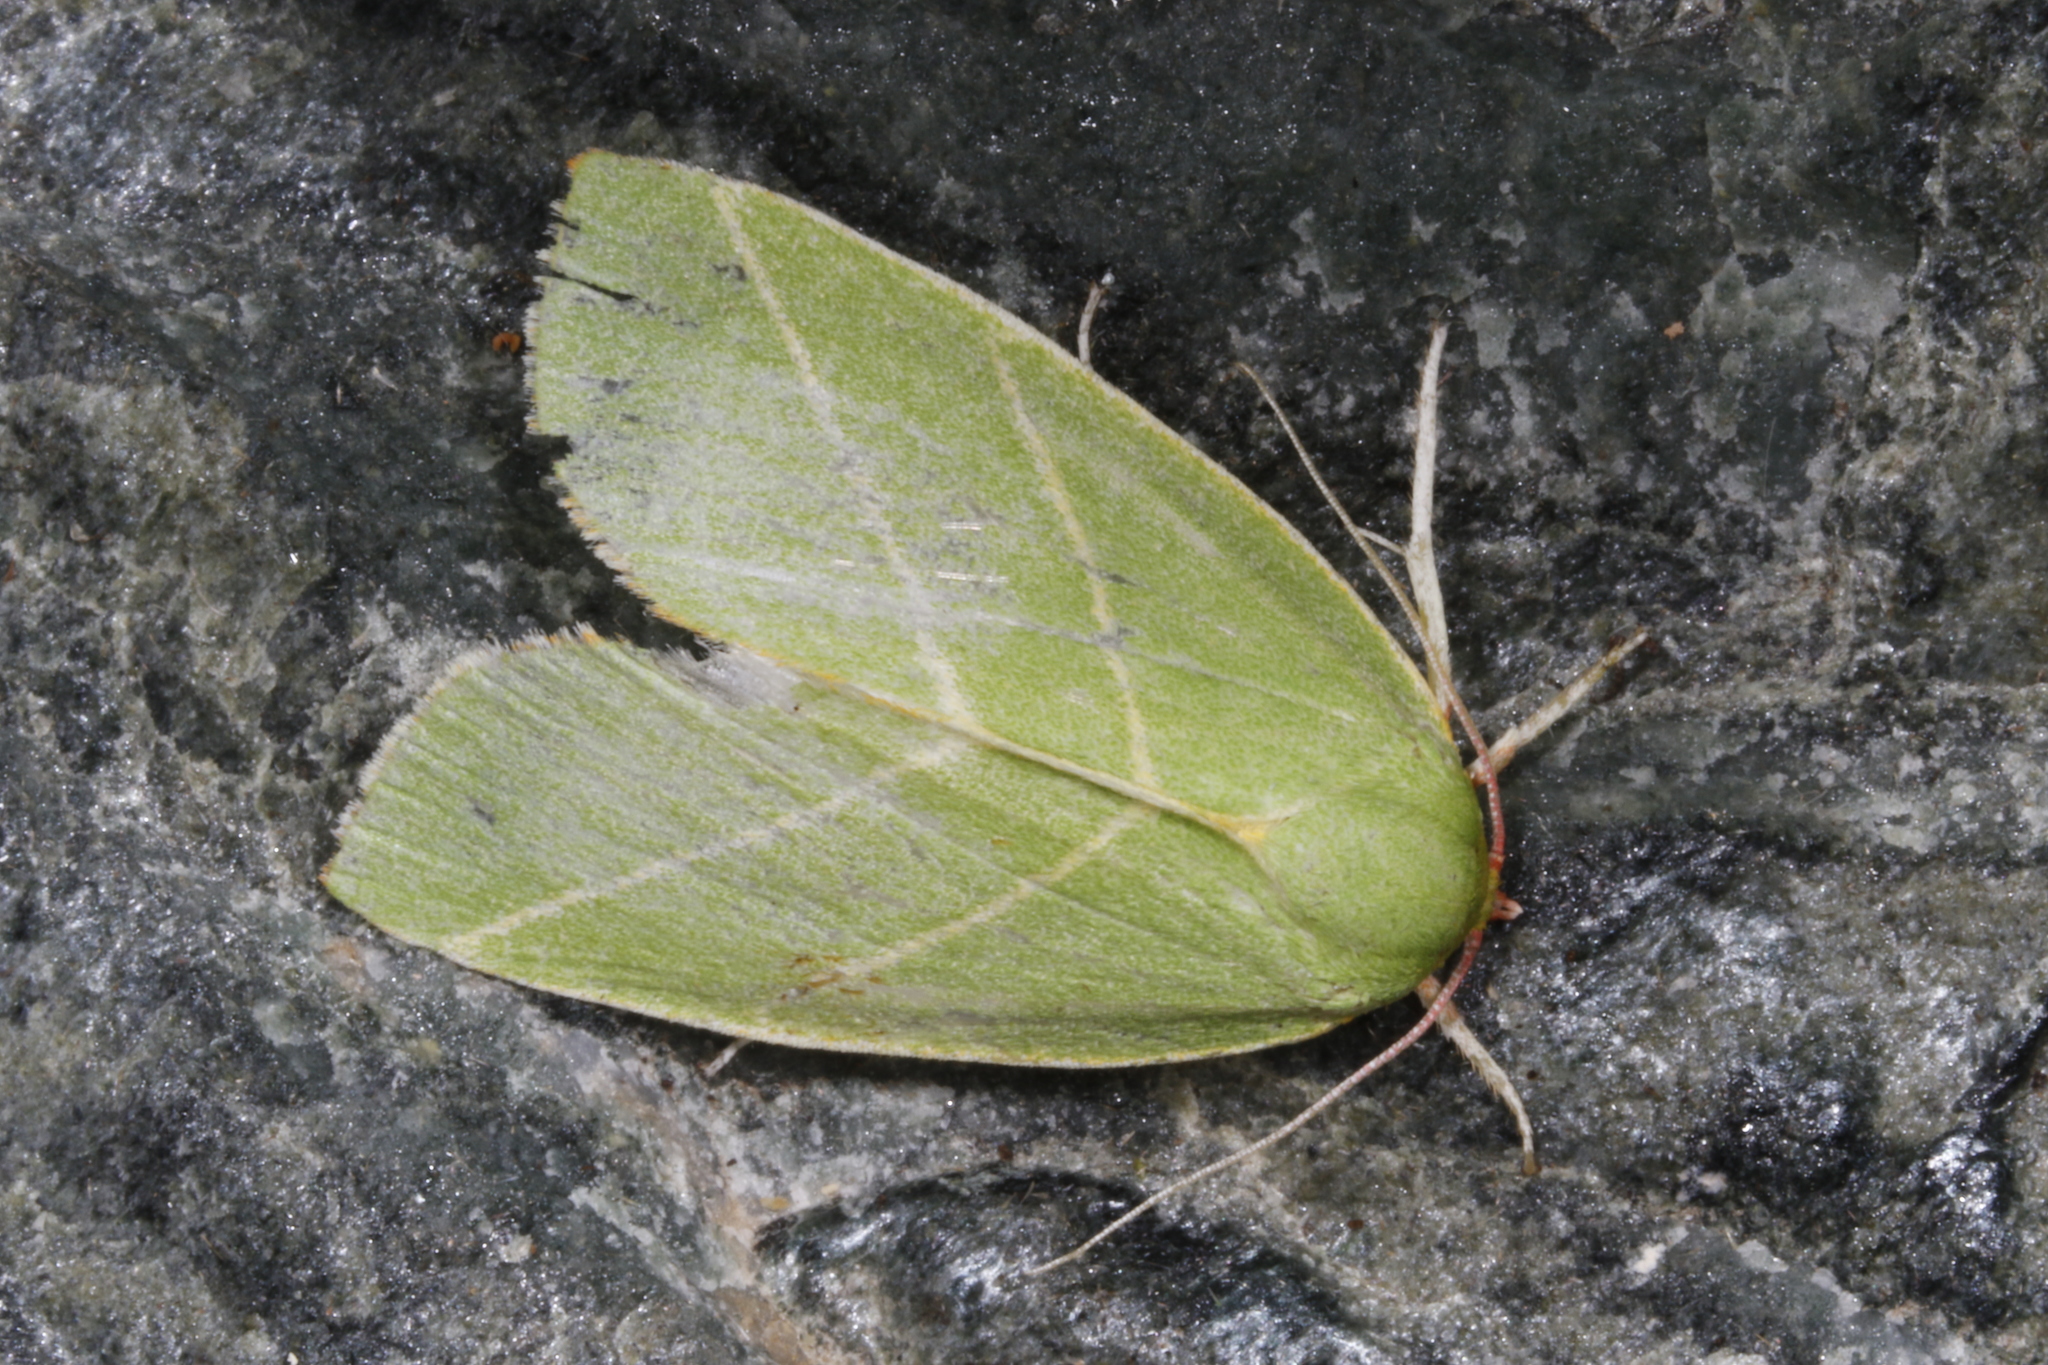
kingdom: Animalia
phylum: Arthropoda
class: Insecta
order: Lepidoptera
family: Nolidae
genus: Pseudoips
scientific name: Pseudoips prasinana
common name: Green silver-lines
